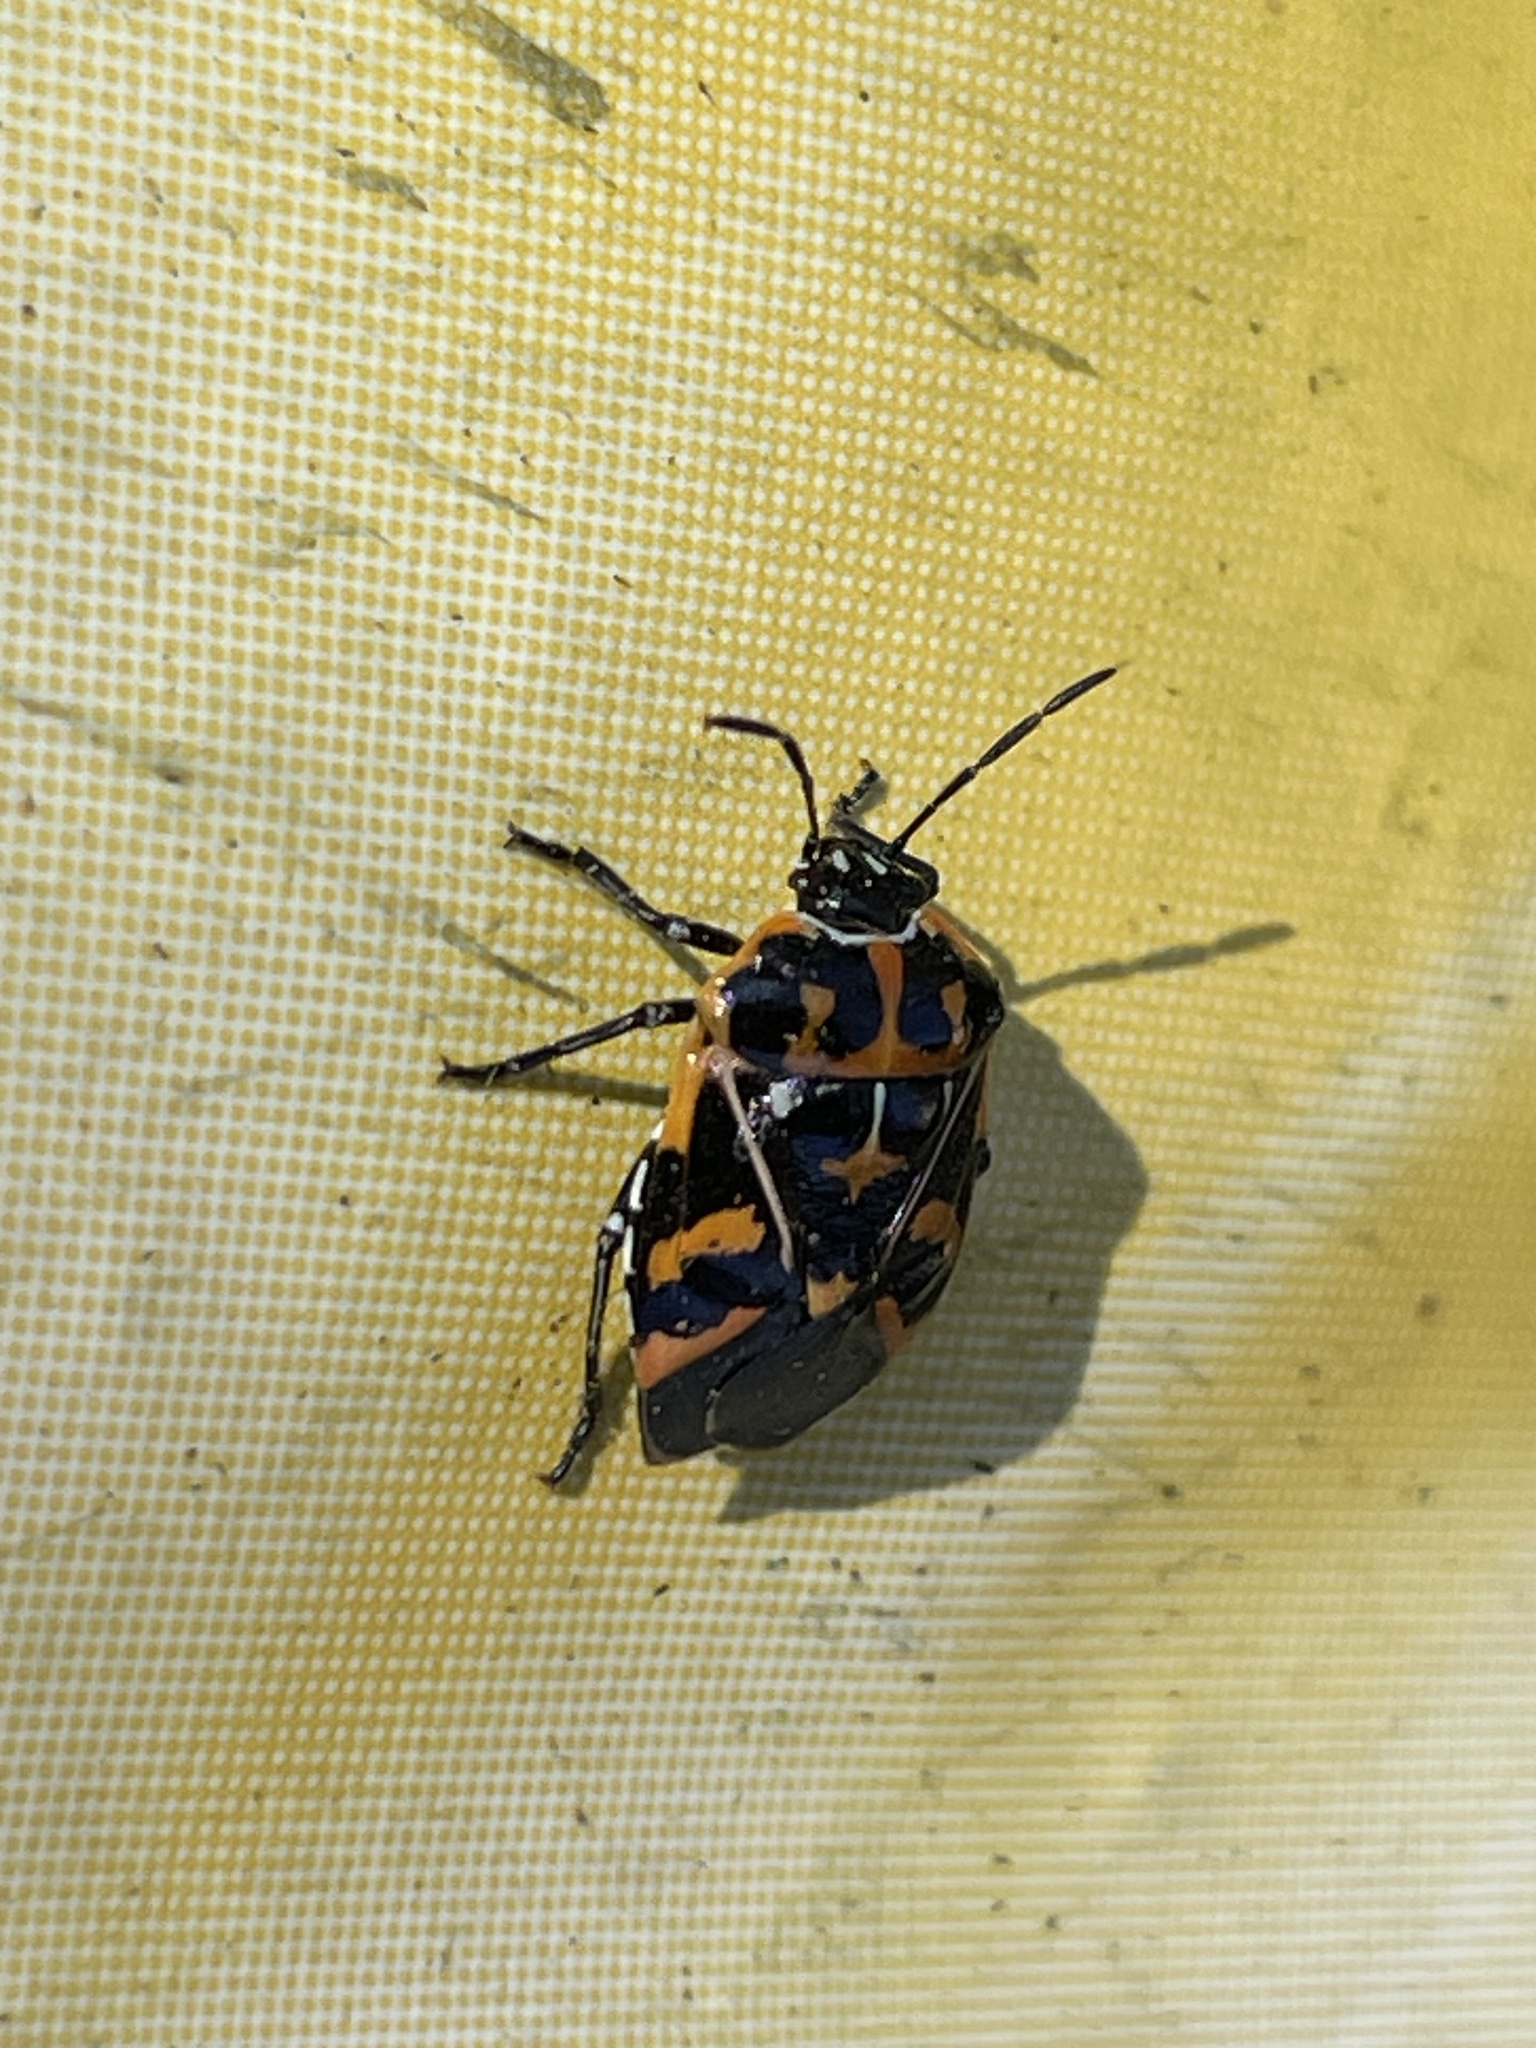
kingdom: Animalia
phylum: Arthropoda
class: Insecta
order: Hemiptera
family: Pentatomidae
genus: Murgantia
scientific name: Murgantia histrionica
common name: Harlequin bug
